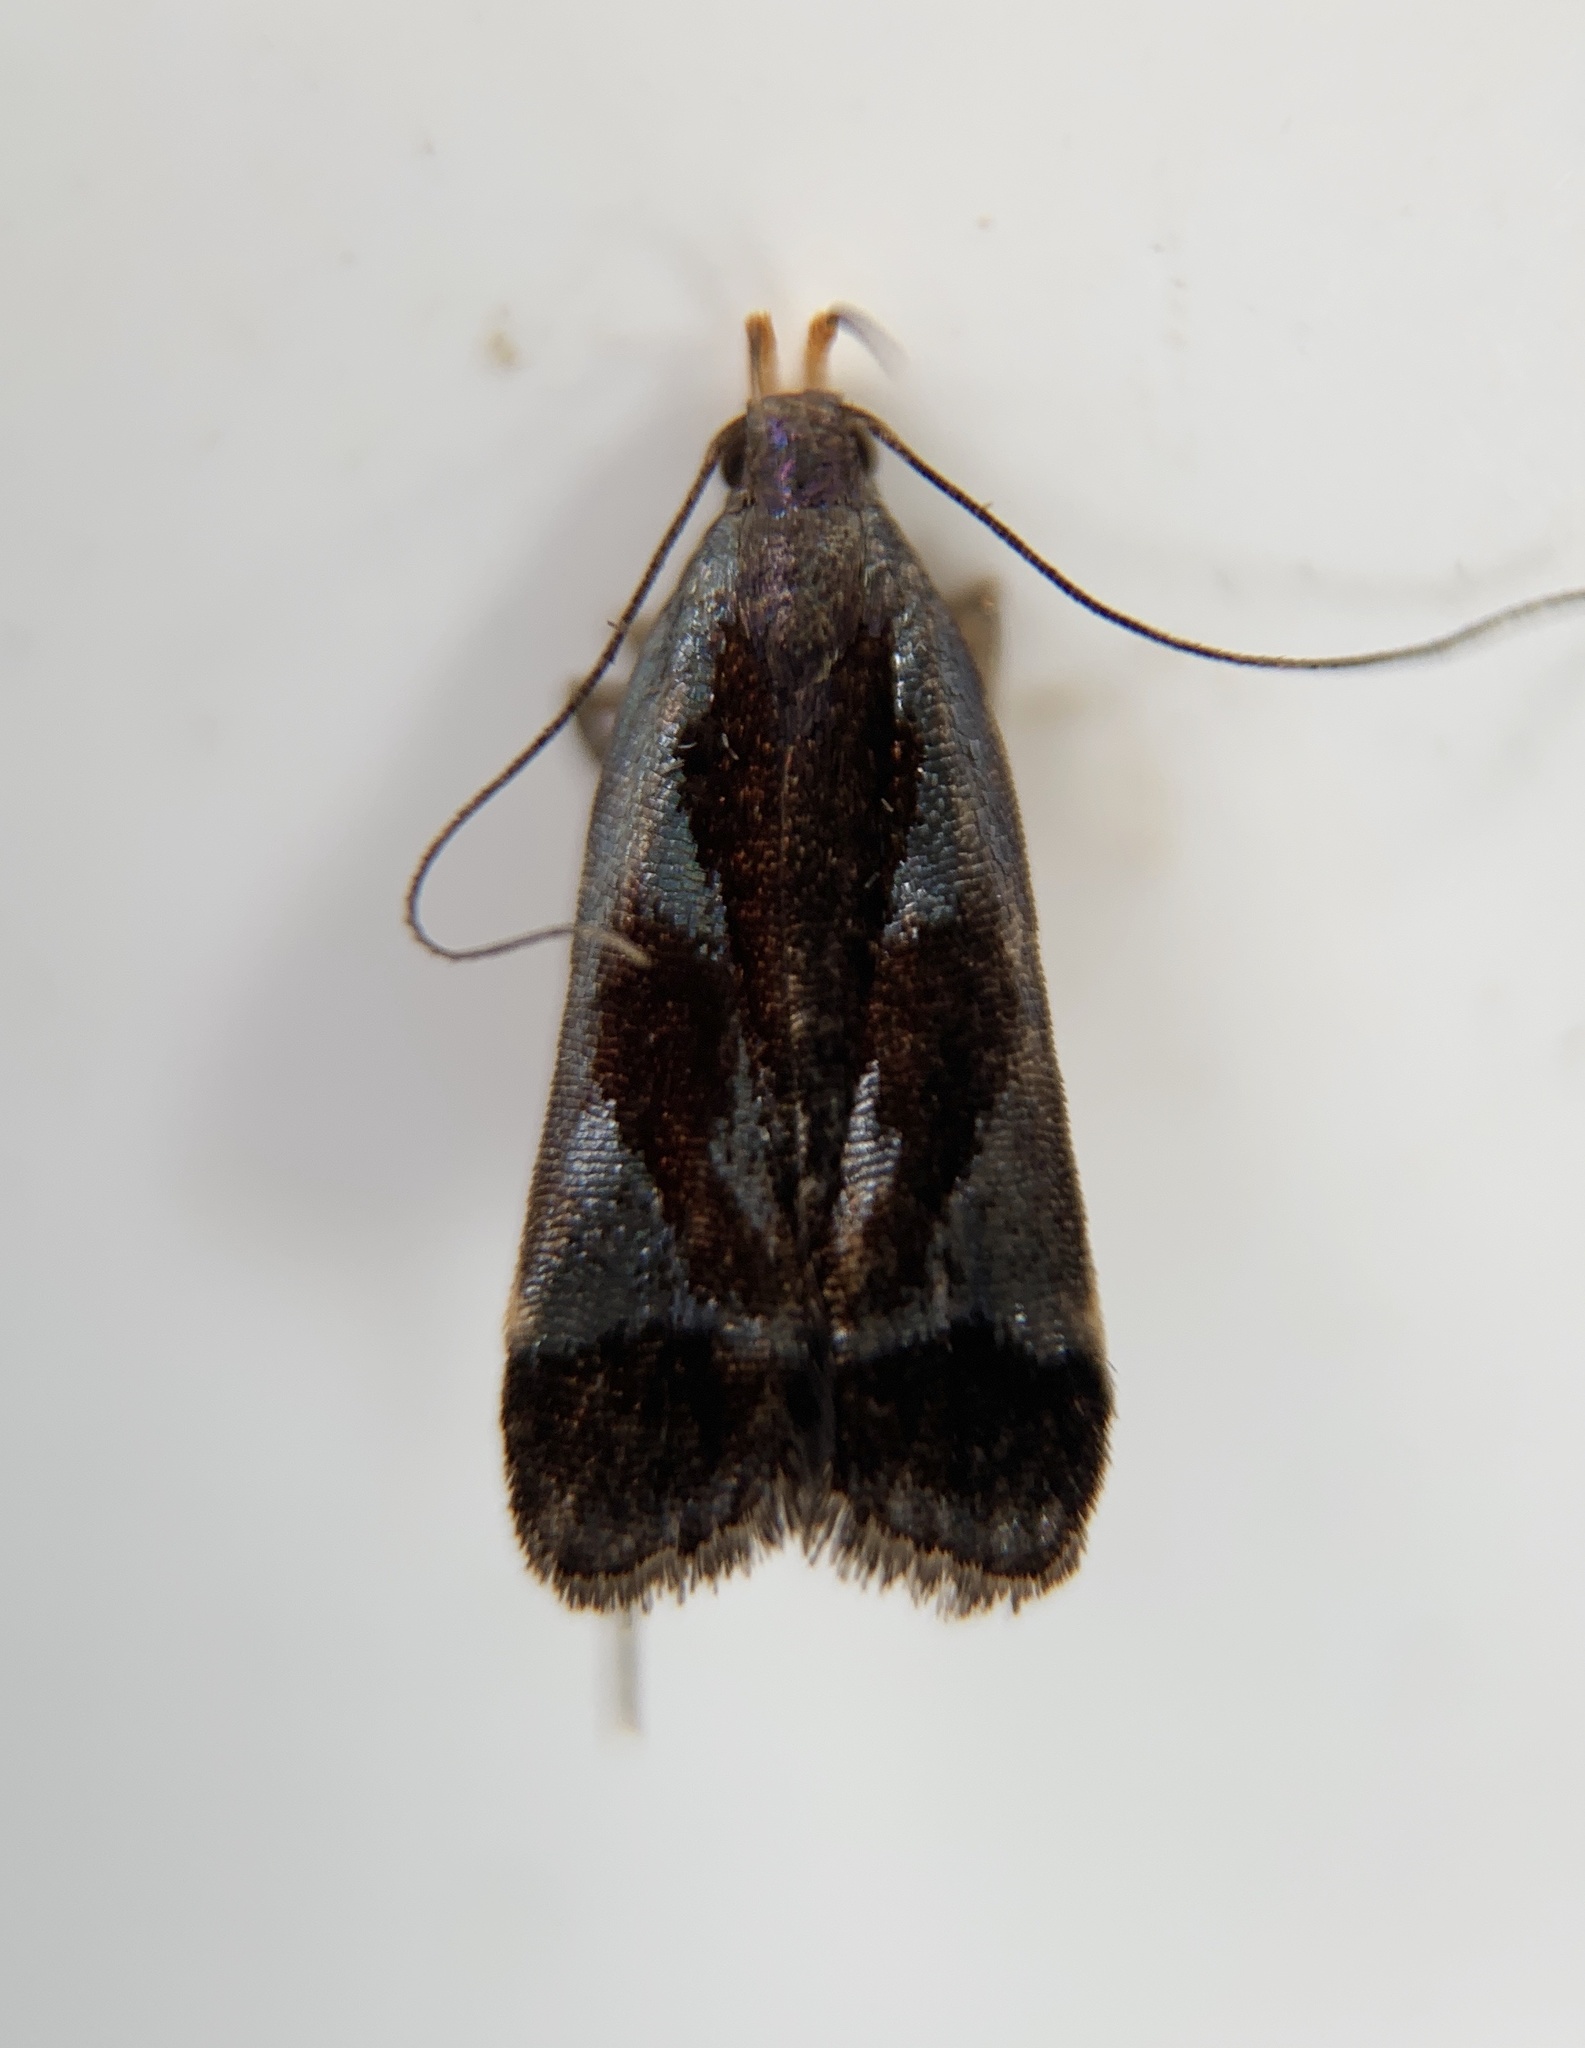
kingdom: Animalia
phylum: Arthropoda
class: Insecta
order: Lepidoptera
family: Gelechiidae
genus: Dichomeris
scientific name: Dichomeris ochripalpella
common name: Shining dichomeris moth
